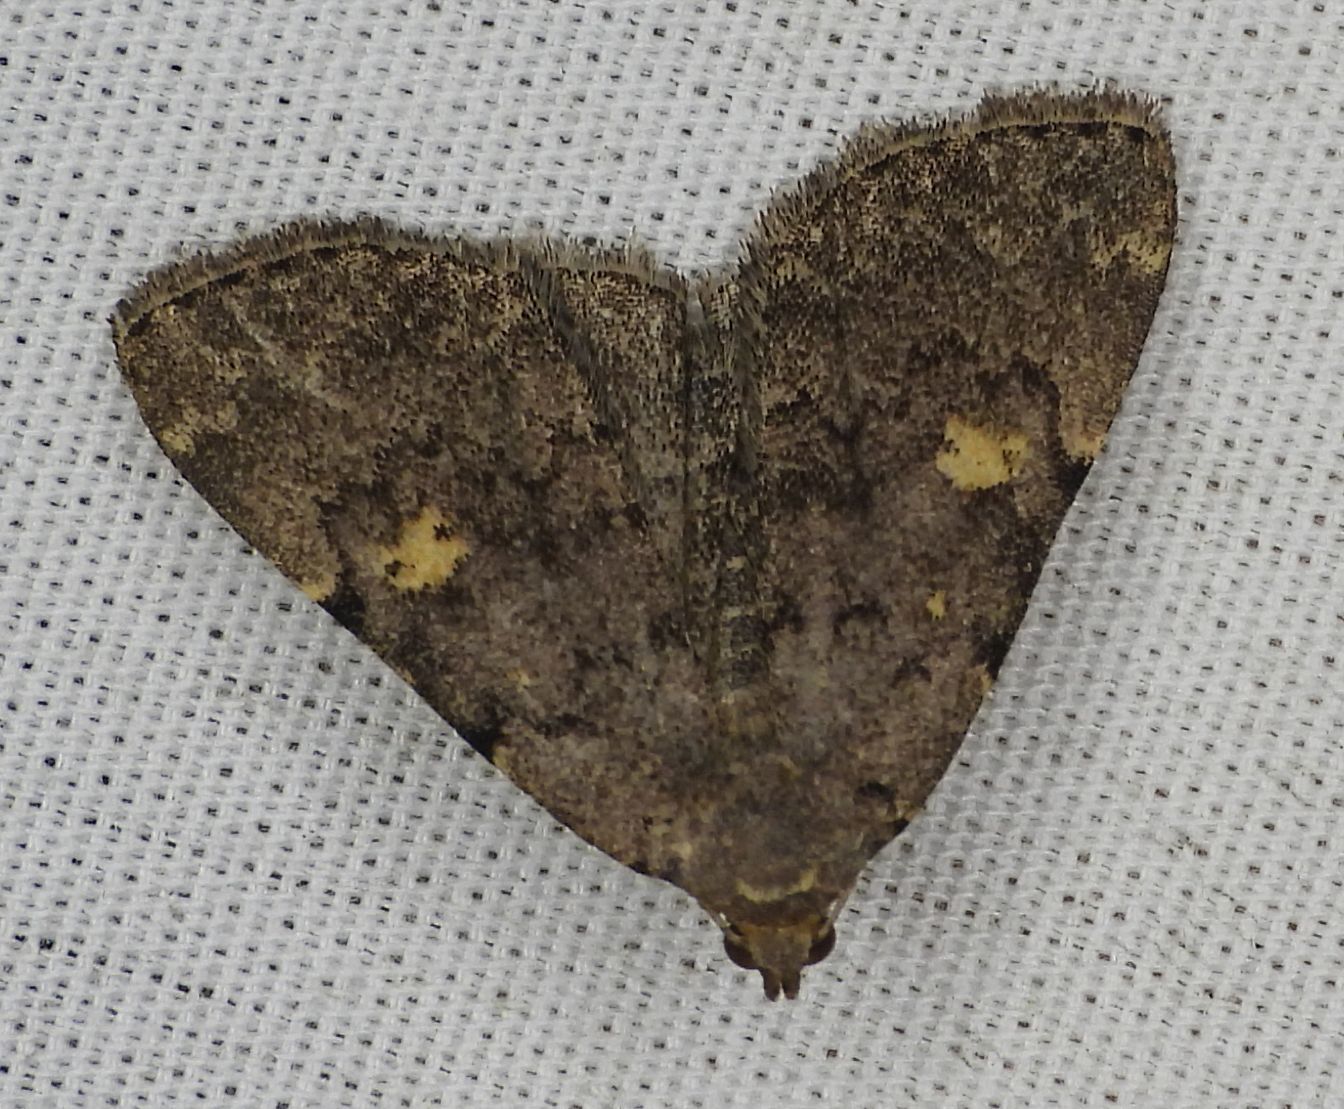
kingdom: Animalia
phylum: Arthropoda
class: Insecta
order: Lepidoptera
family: Erebidae
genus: Idia
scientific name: Idia aemula
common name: Common idia moth
